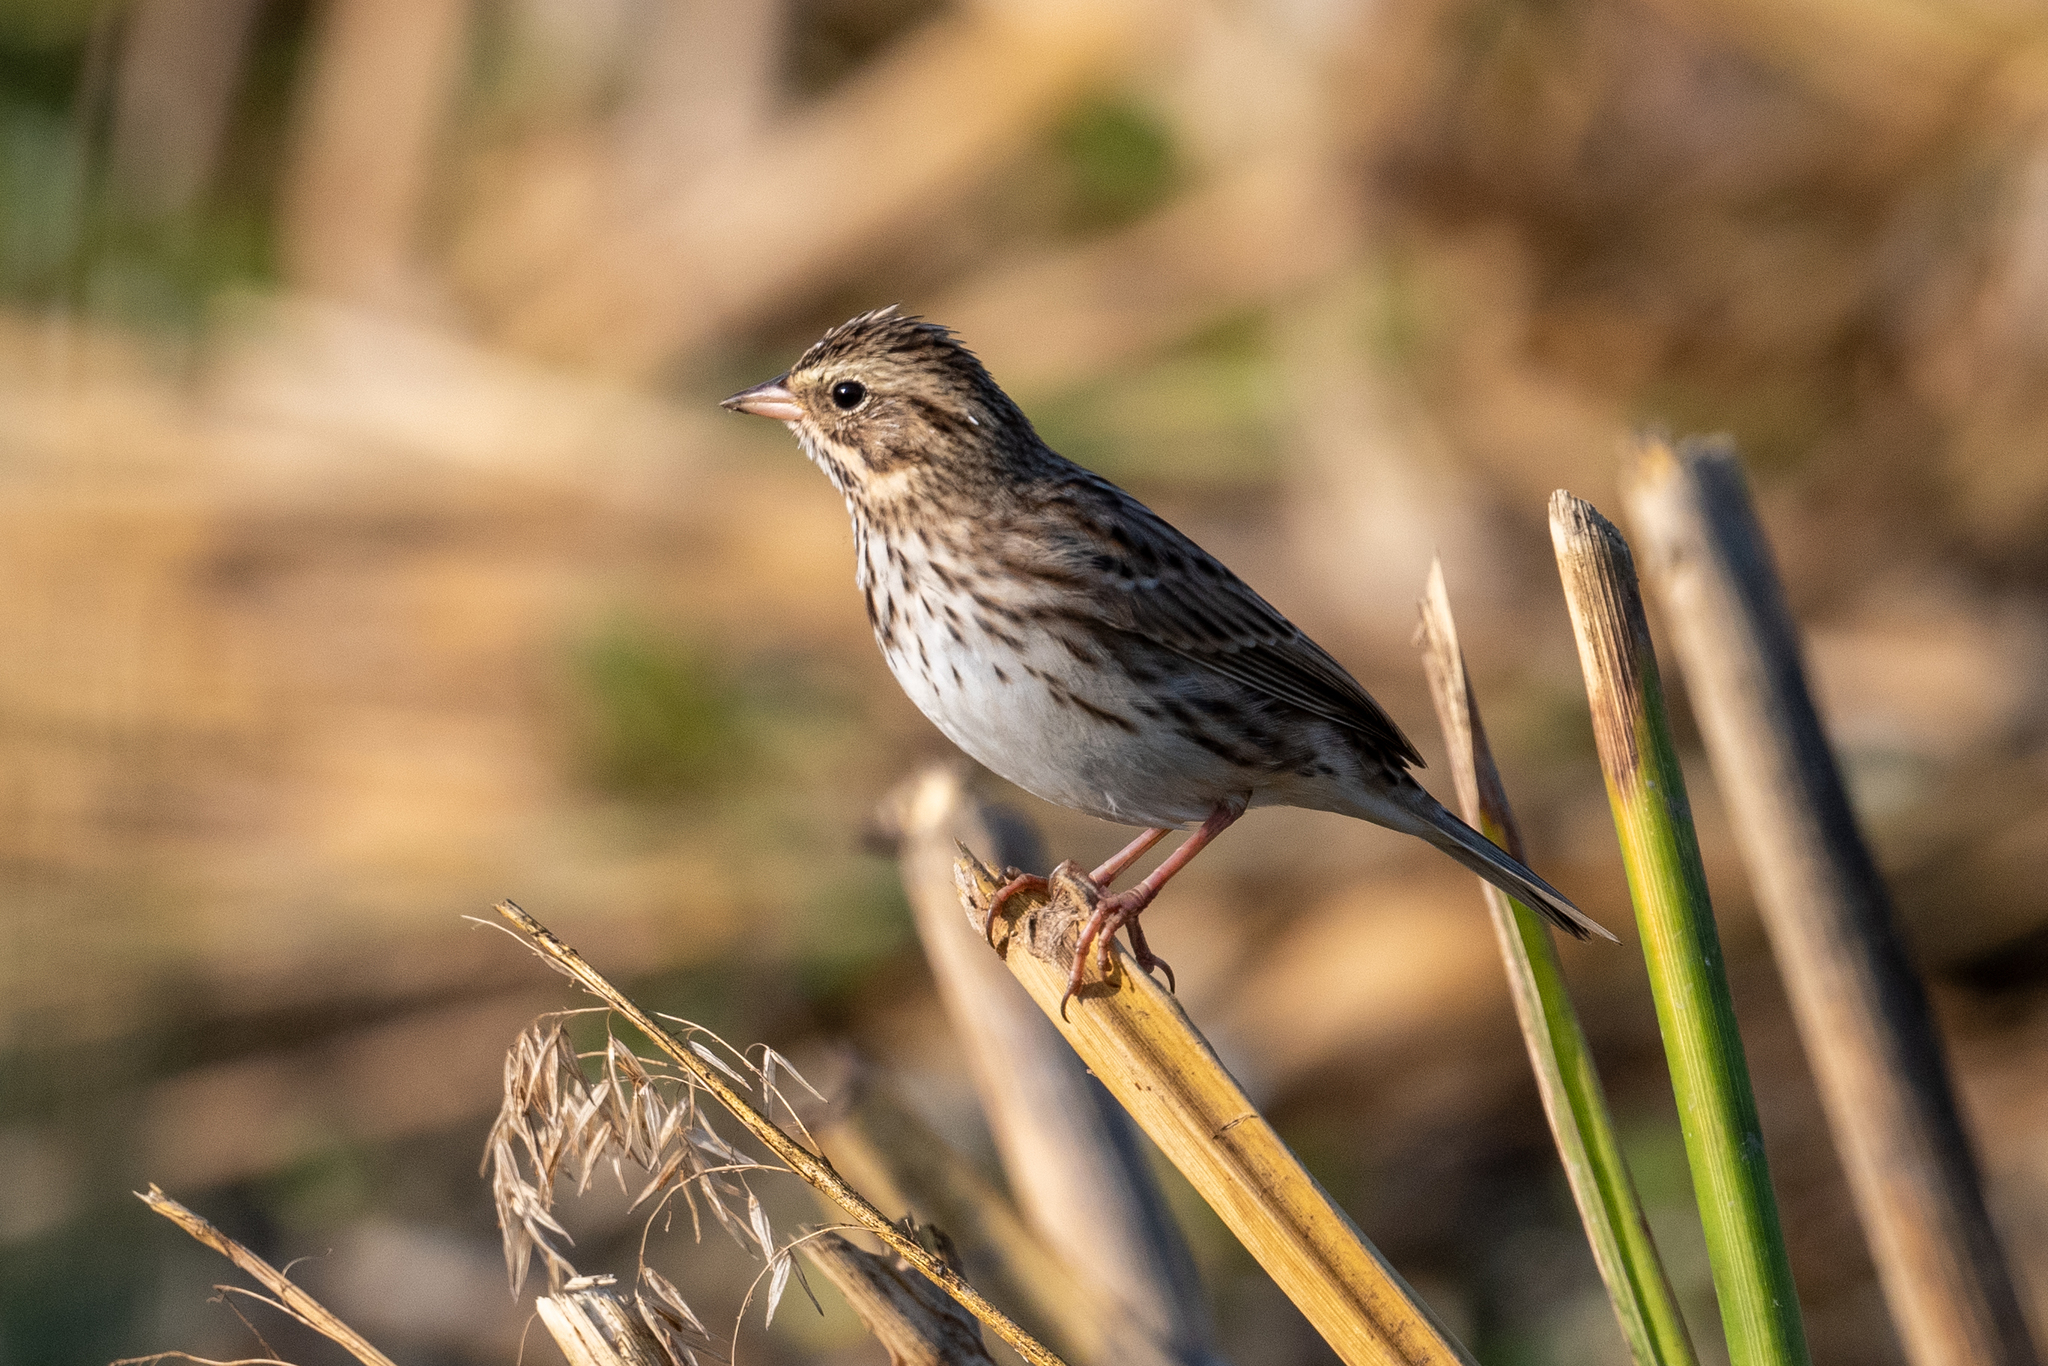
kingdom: Animalia
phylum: Chordata
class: Aves
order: Passeriformes
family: Passerellidae
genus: Passerculus
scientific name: Passerculus sandwichensis
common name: Savannah sparrow
